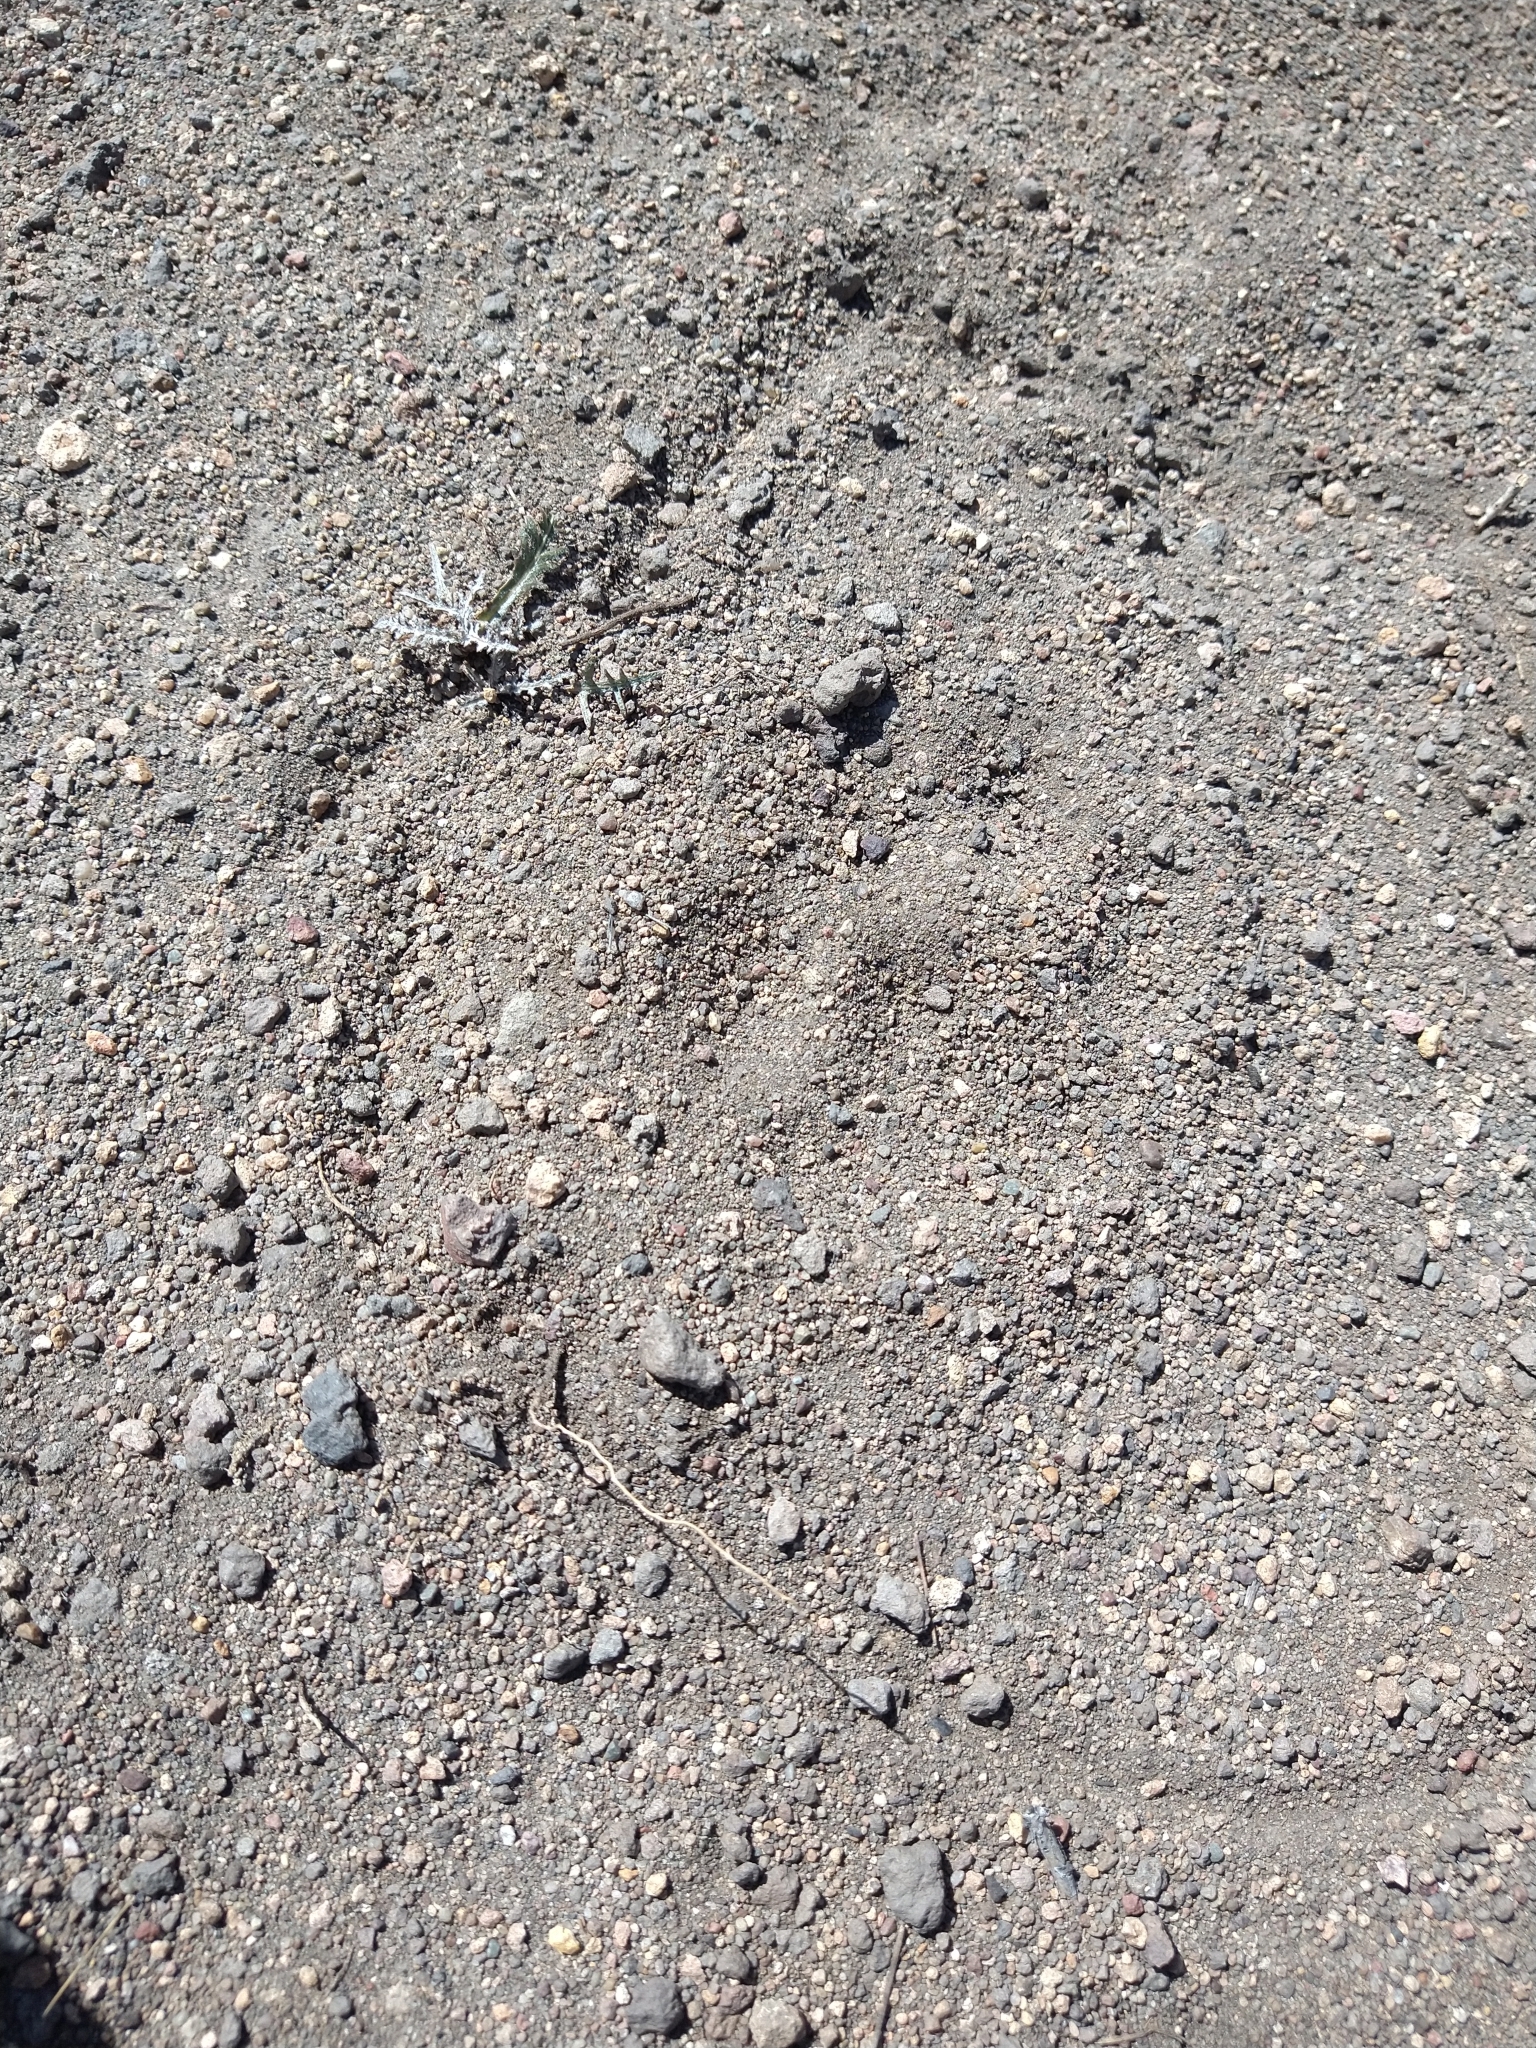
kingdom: Animalia
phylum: Chordata
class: Mammalia
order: Carnivora
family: Felidae
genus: Puma
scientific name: Puma concolor
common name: Puma
